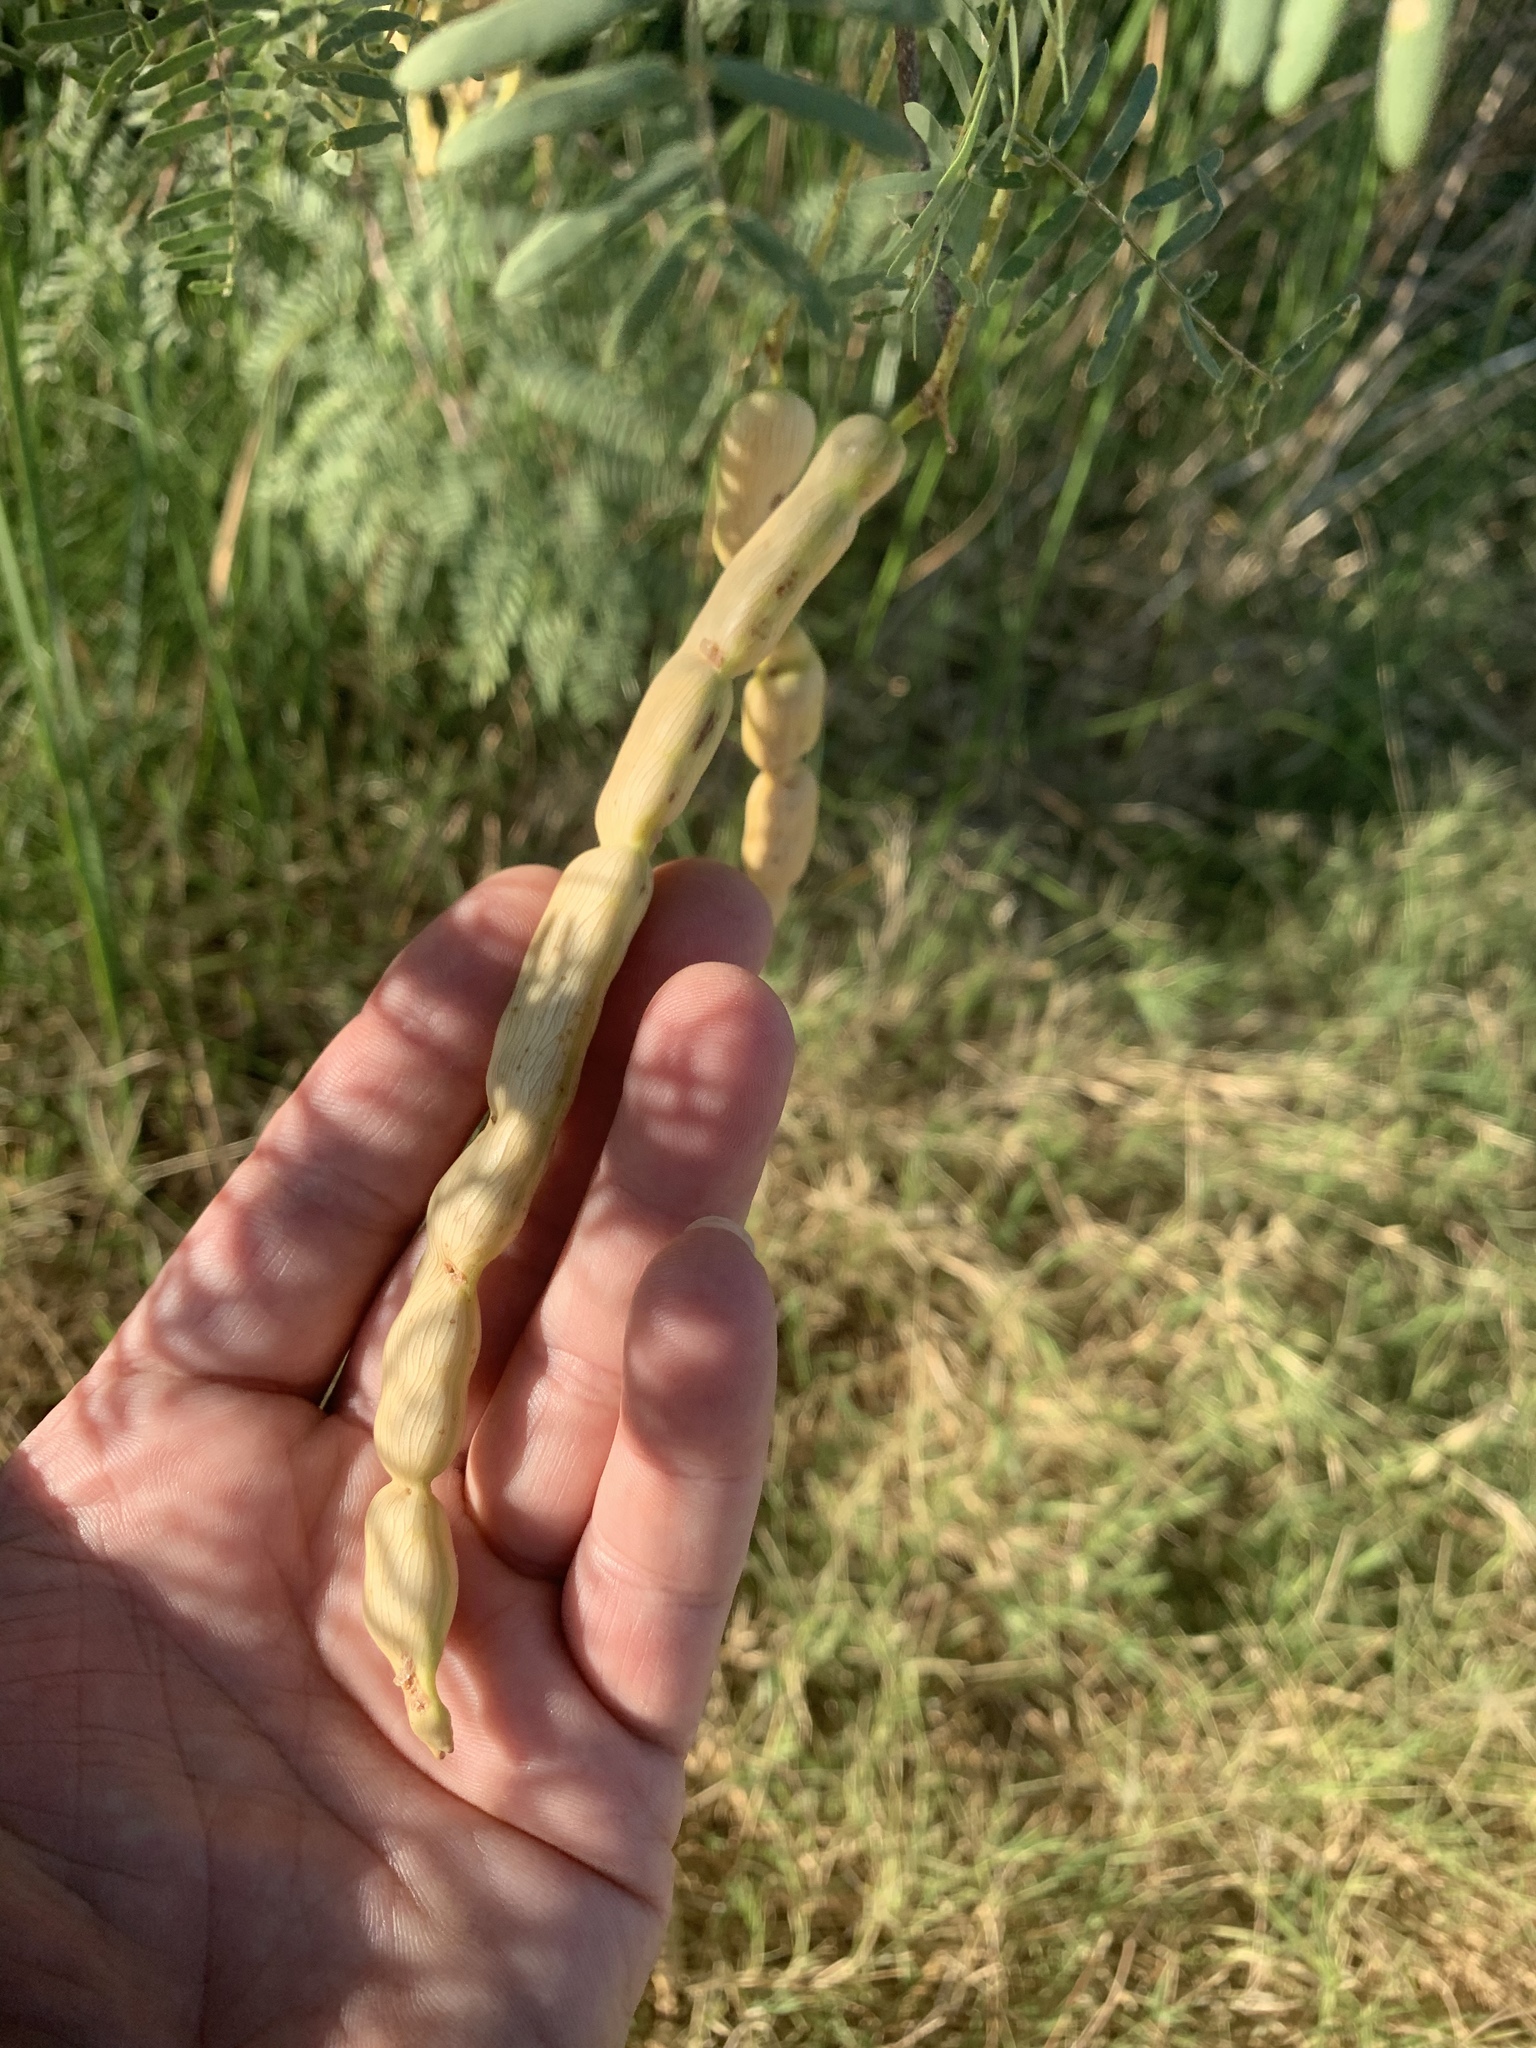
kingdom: Plantae
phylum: Tracheophyta
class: Magnoliopsida
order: Fabales
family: Fabaceae
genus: Prosopis
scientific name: Prosopis glandulosa
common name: Honey mesquite
